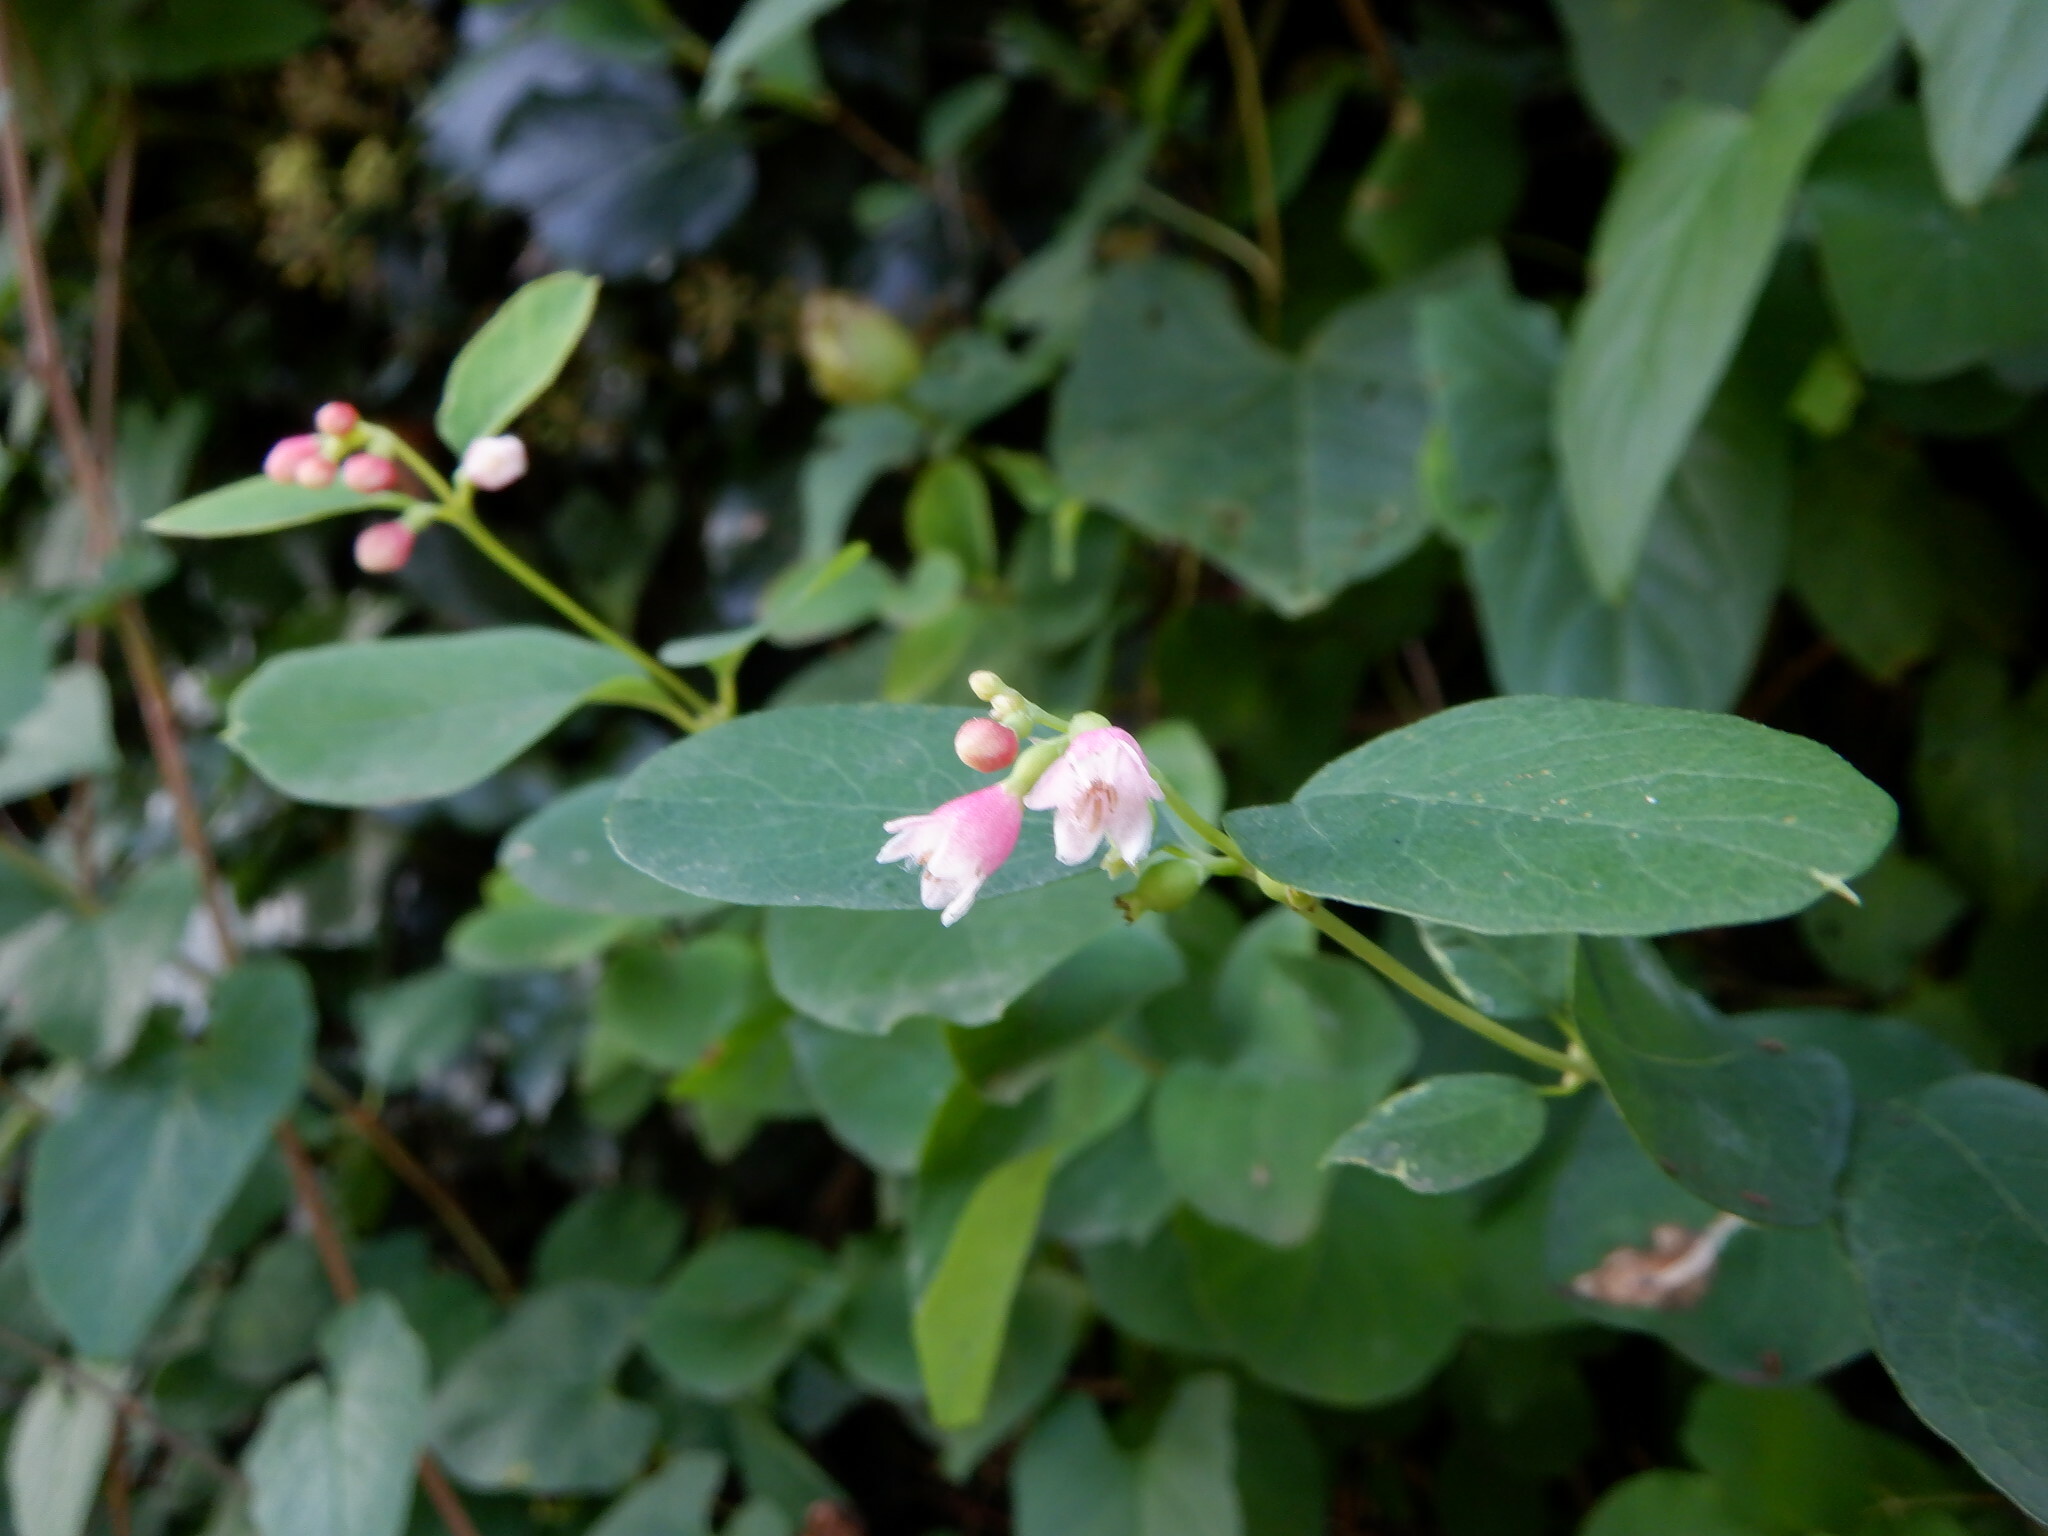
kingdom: Plantae
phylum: Tracheophyta
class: Magnoliopsida
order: Dipsacales
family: Caprifoliaceae
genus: Symphoricarpos
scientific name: Symphoricarpos albus
